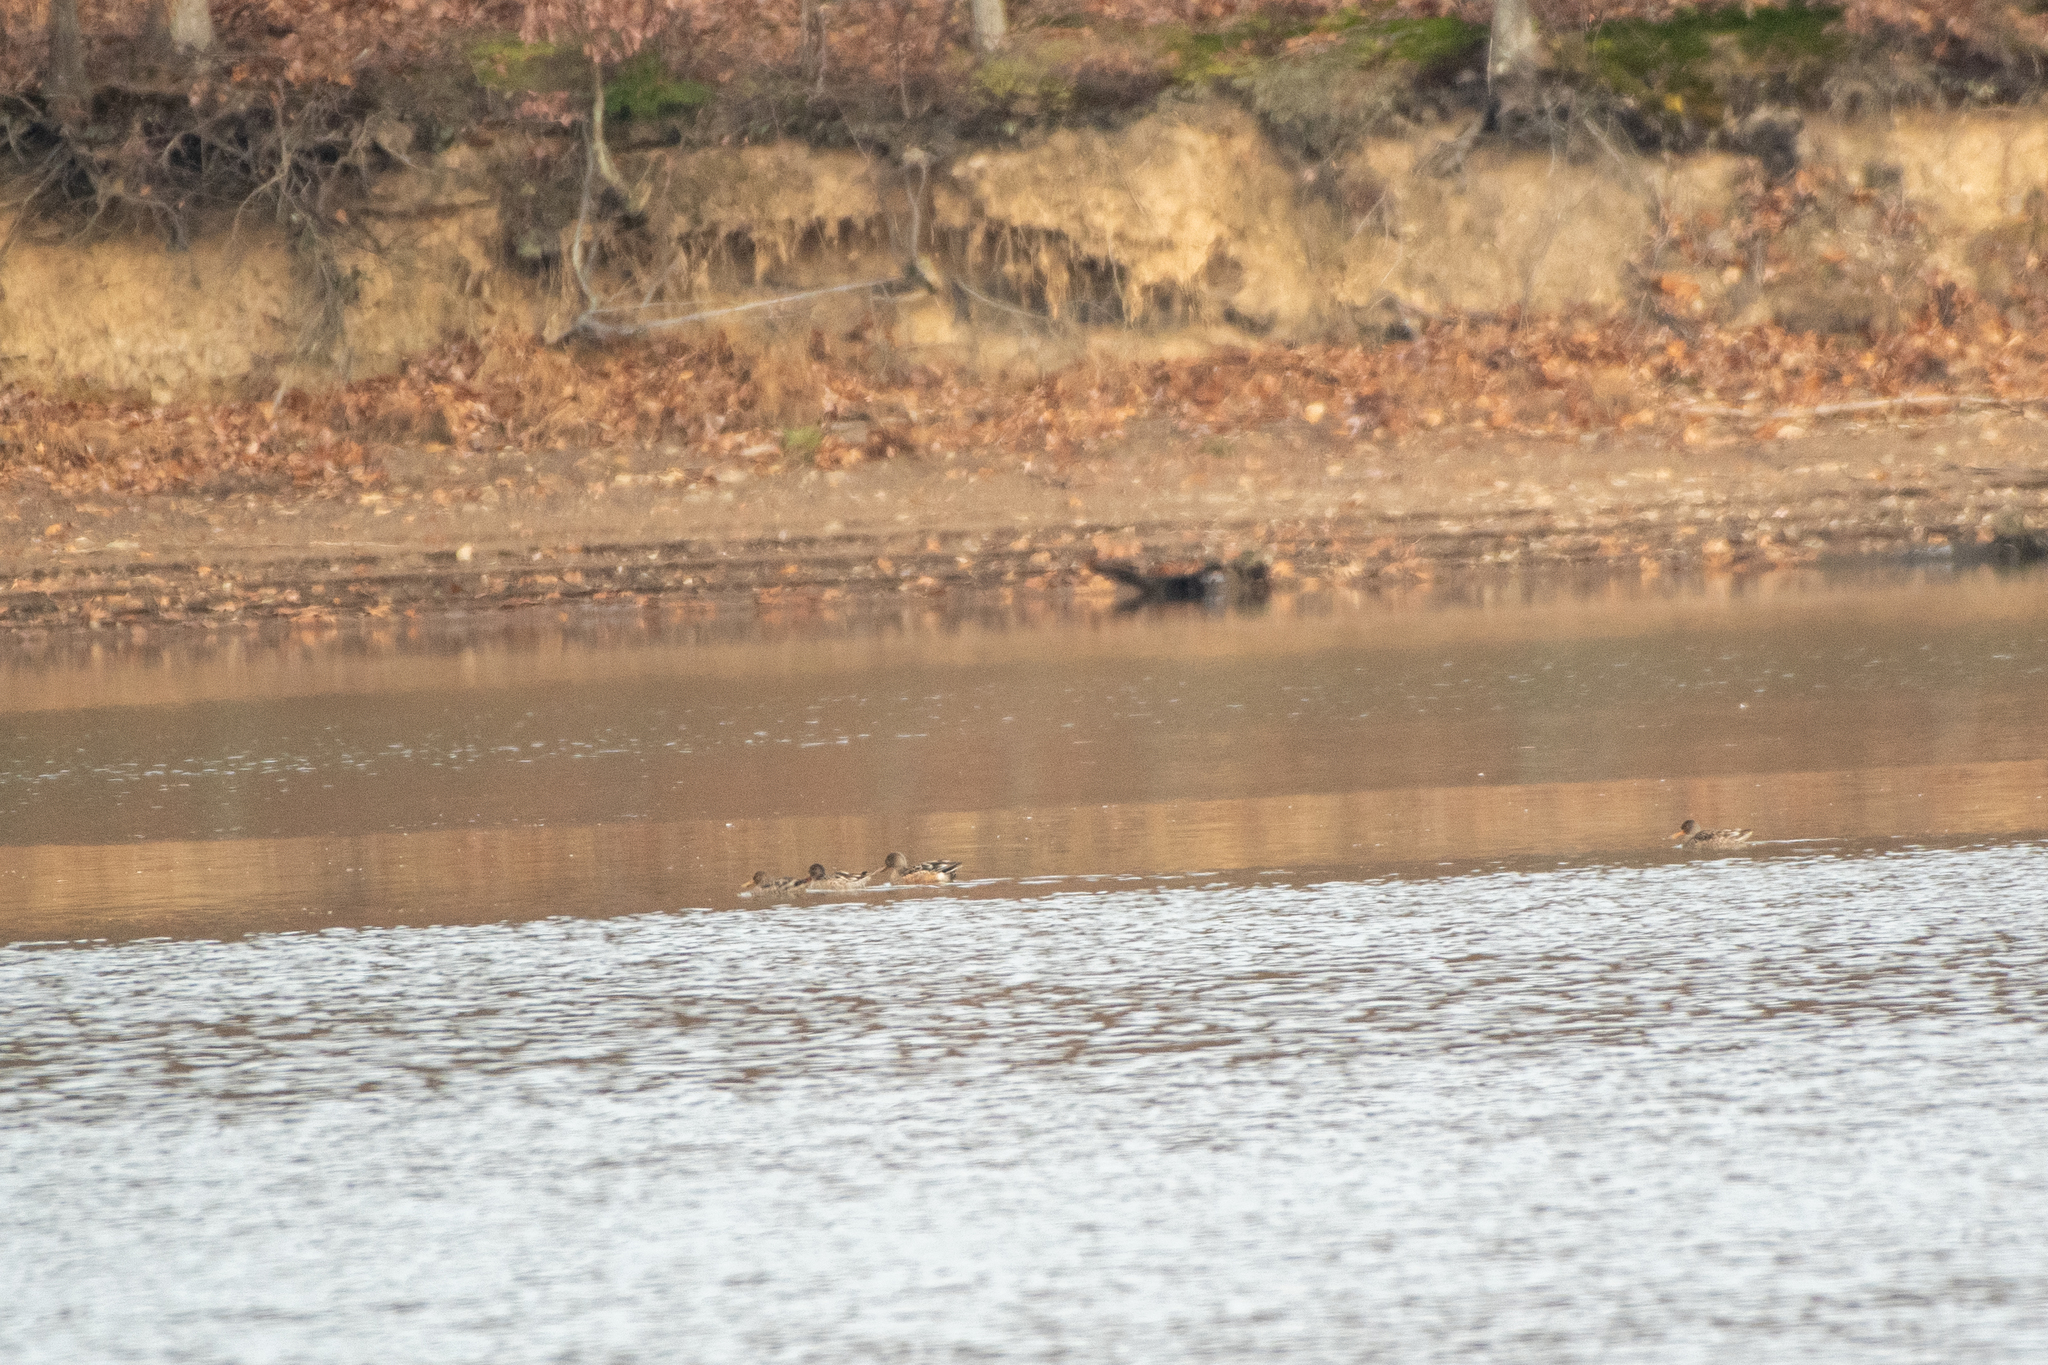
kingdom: Animalia
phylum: Chordata
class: Aves
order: Anseriformes
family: Anatidae
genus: Spatula
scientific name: Spatula clypeata
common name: Northern shoveler
